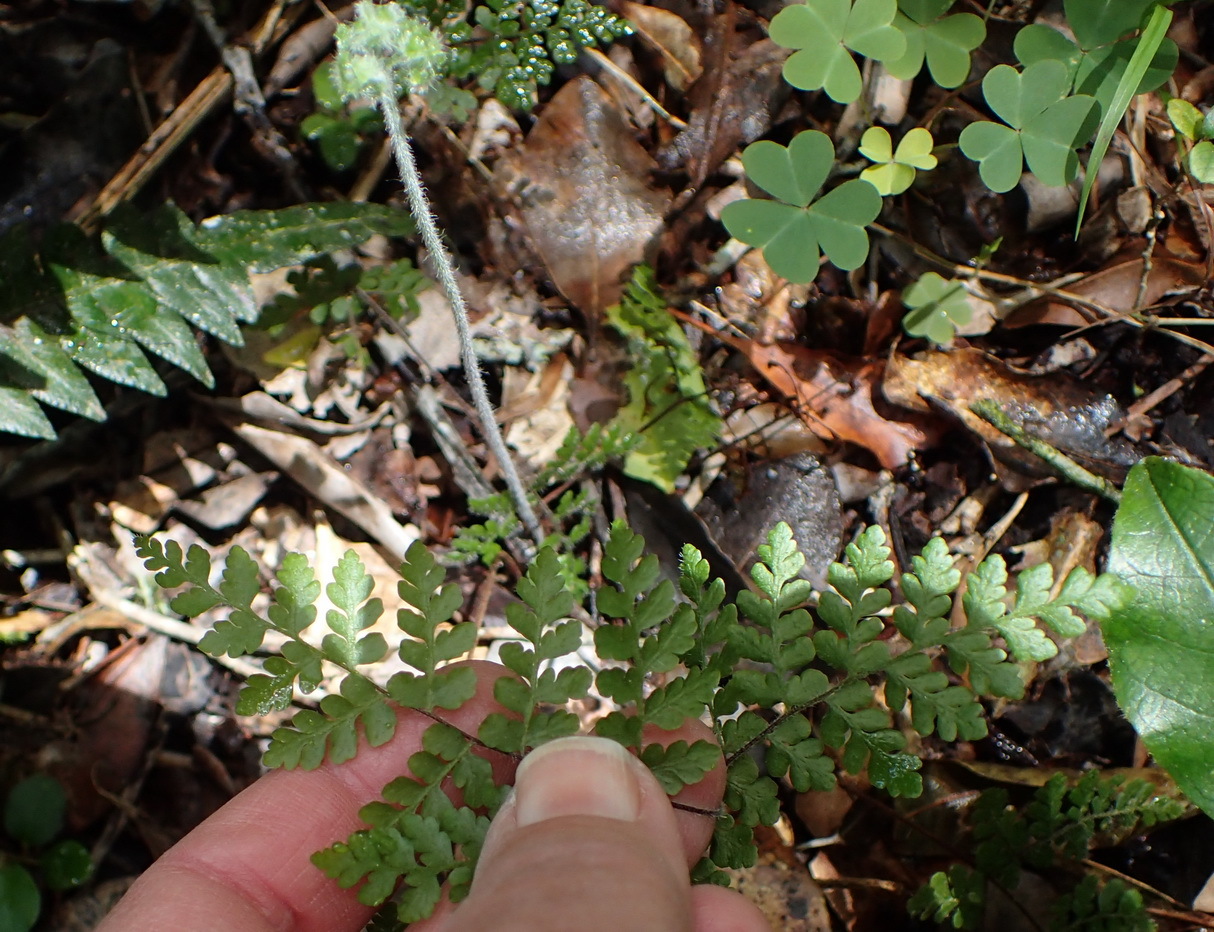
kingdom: Plantae
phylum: Tracheophyta
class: Polypodiopsida
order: Polypodiales
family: Pteridaceae
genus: Cheilanthes
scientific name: Cheilanthes bergiana
